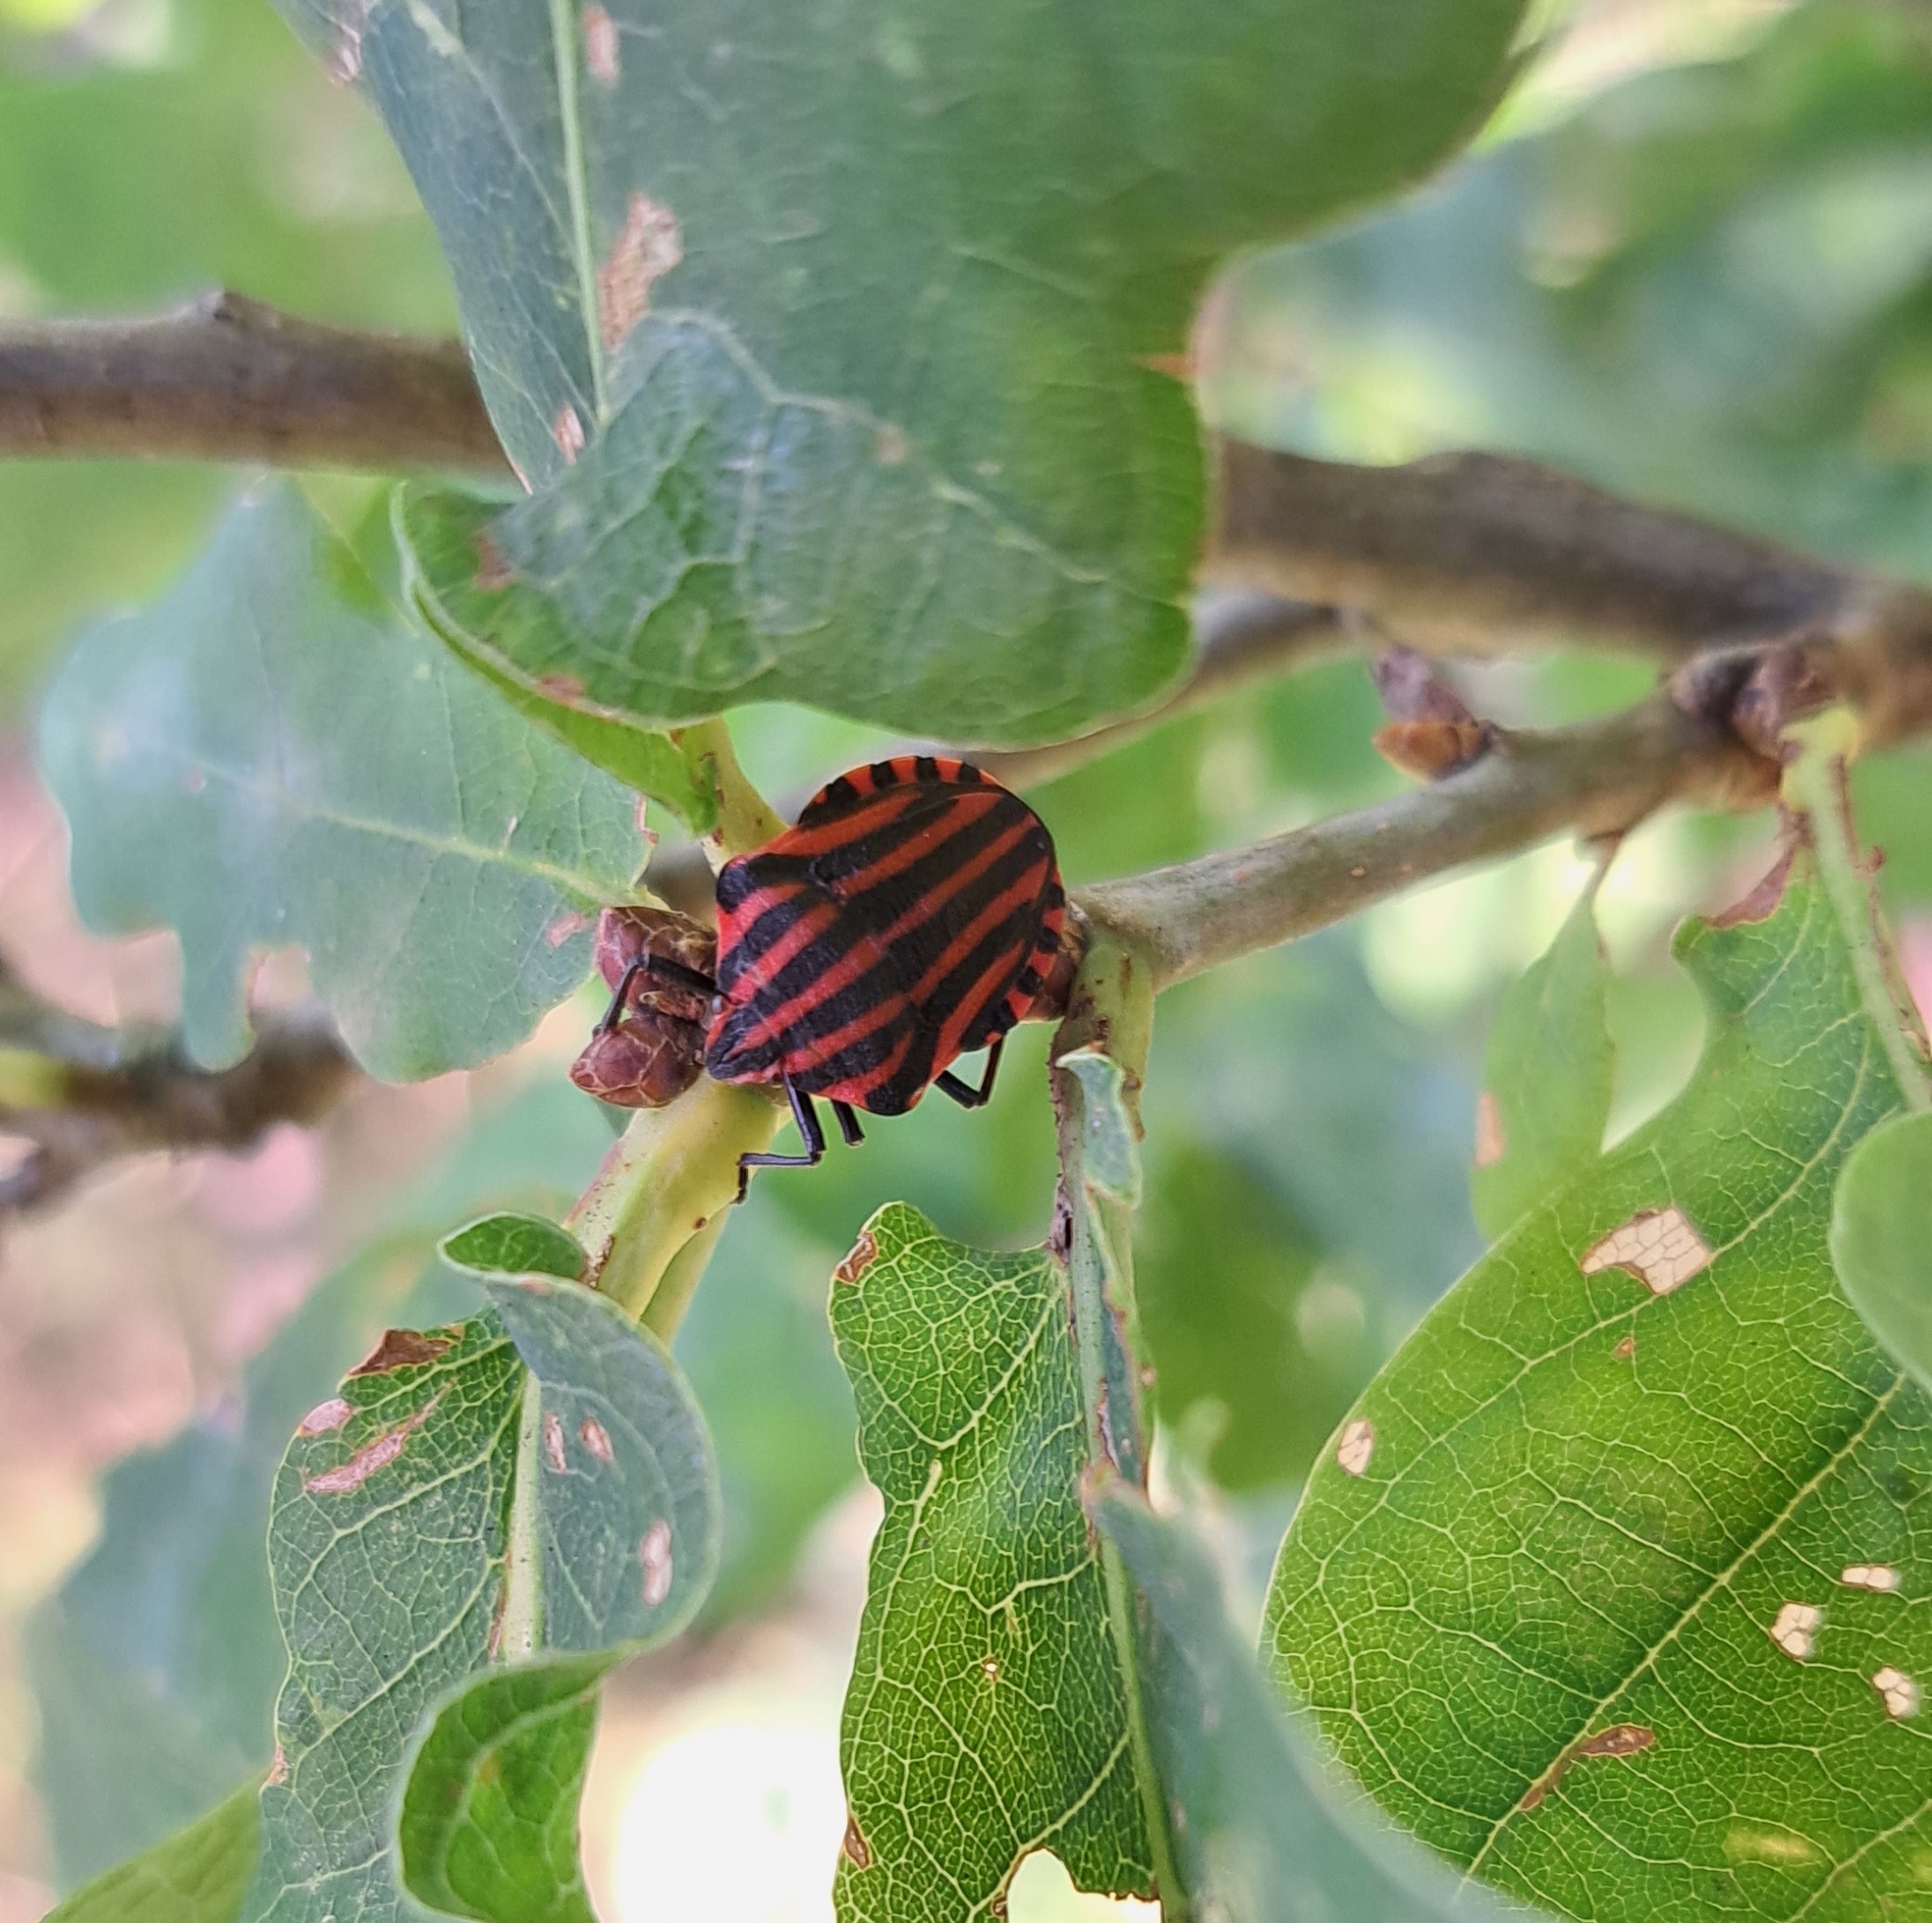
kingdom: Animalia
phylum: Arthropoda
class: Insecta
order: Hemiptera
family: Pentatomidae
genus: Graphosoma
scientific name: Graphosoma italicum
